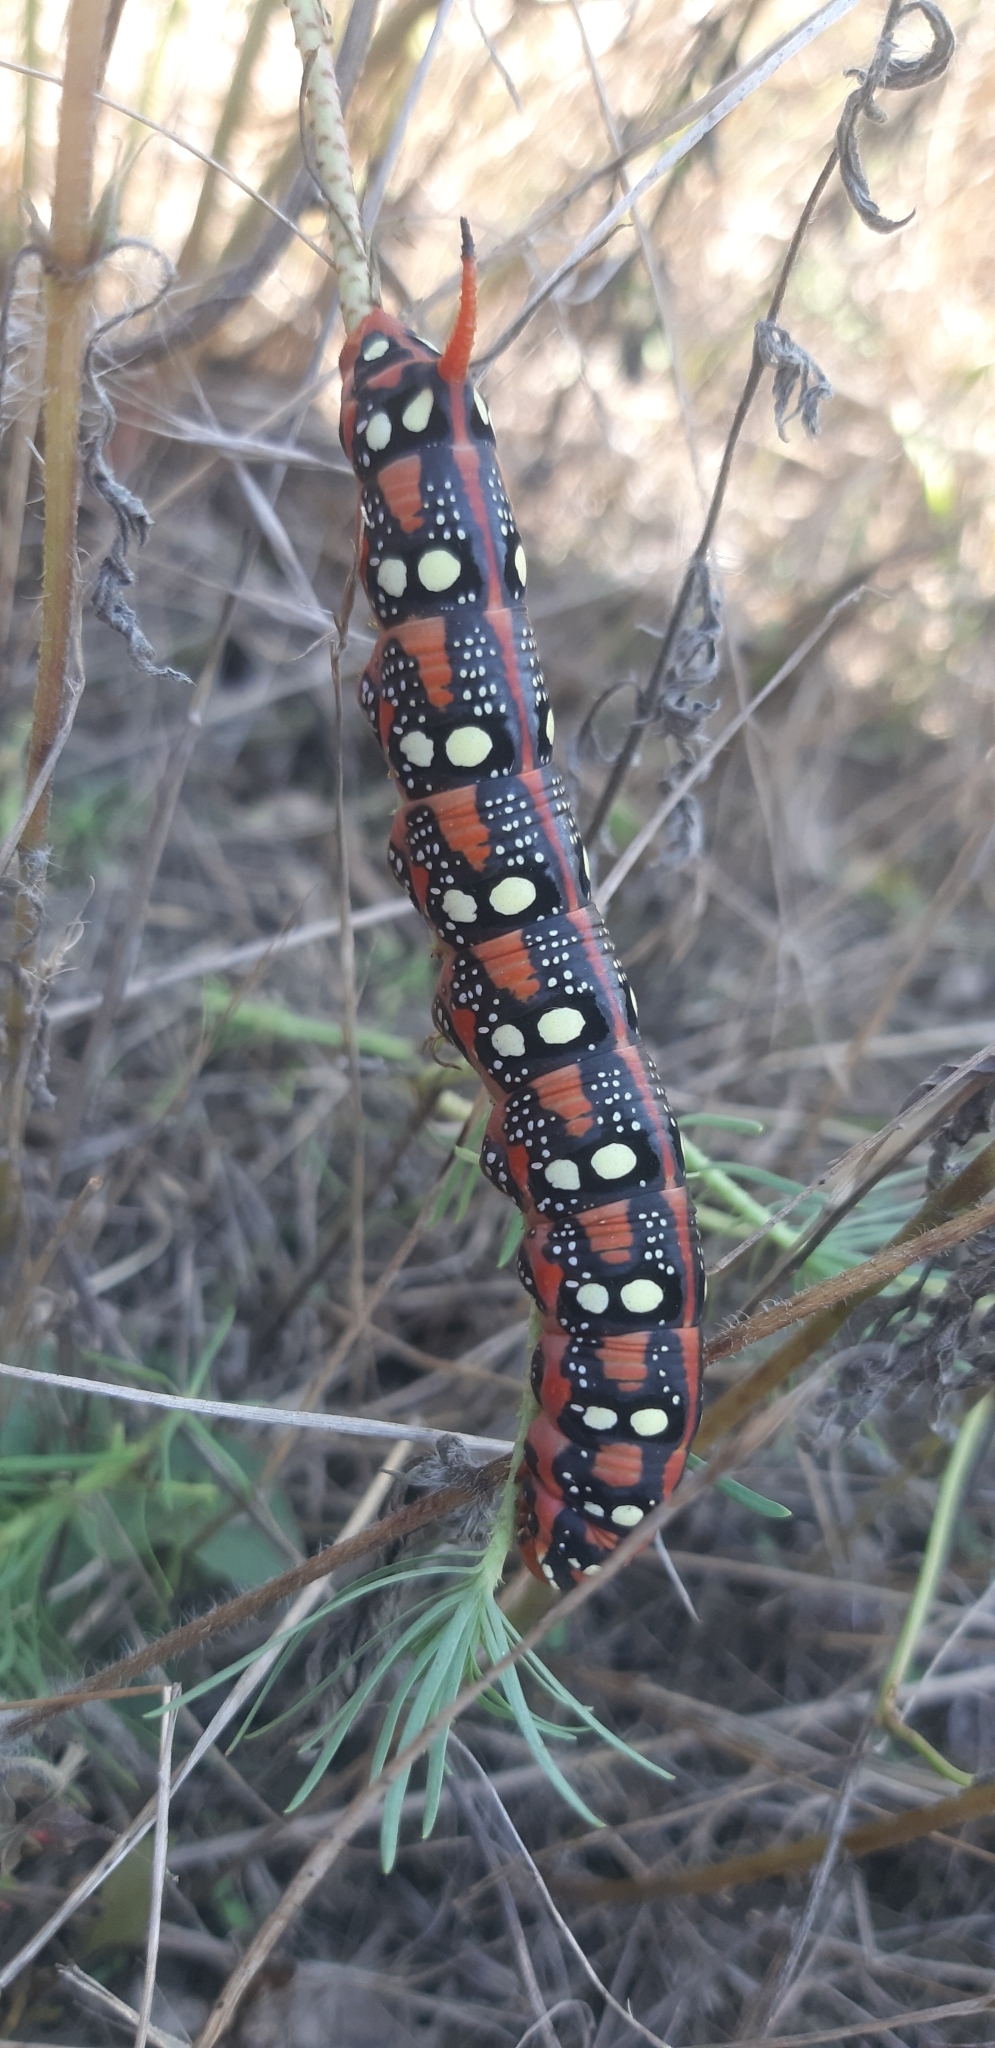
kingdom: Animalia
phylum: Arthropoda
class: Insecta
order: Lepidoptera
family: Sphingidae
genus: Hyles
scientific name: Hyles euphorbiae
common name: Spurge hawk-moth
